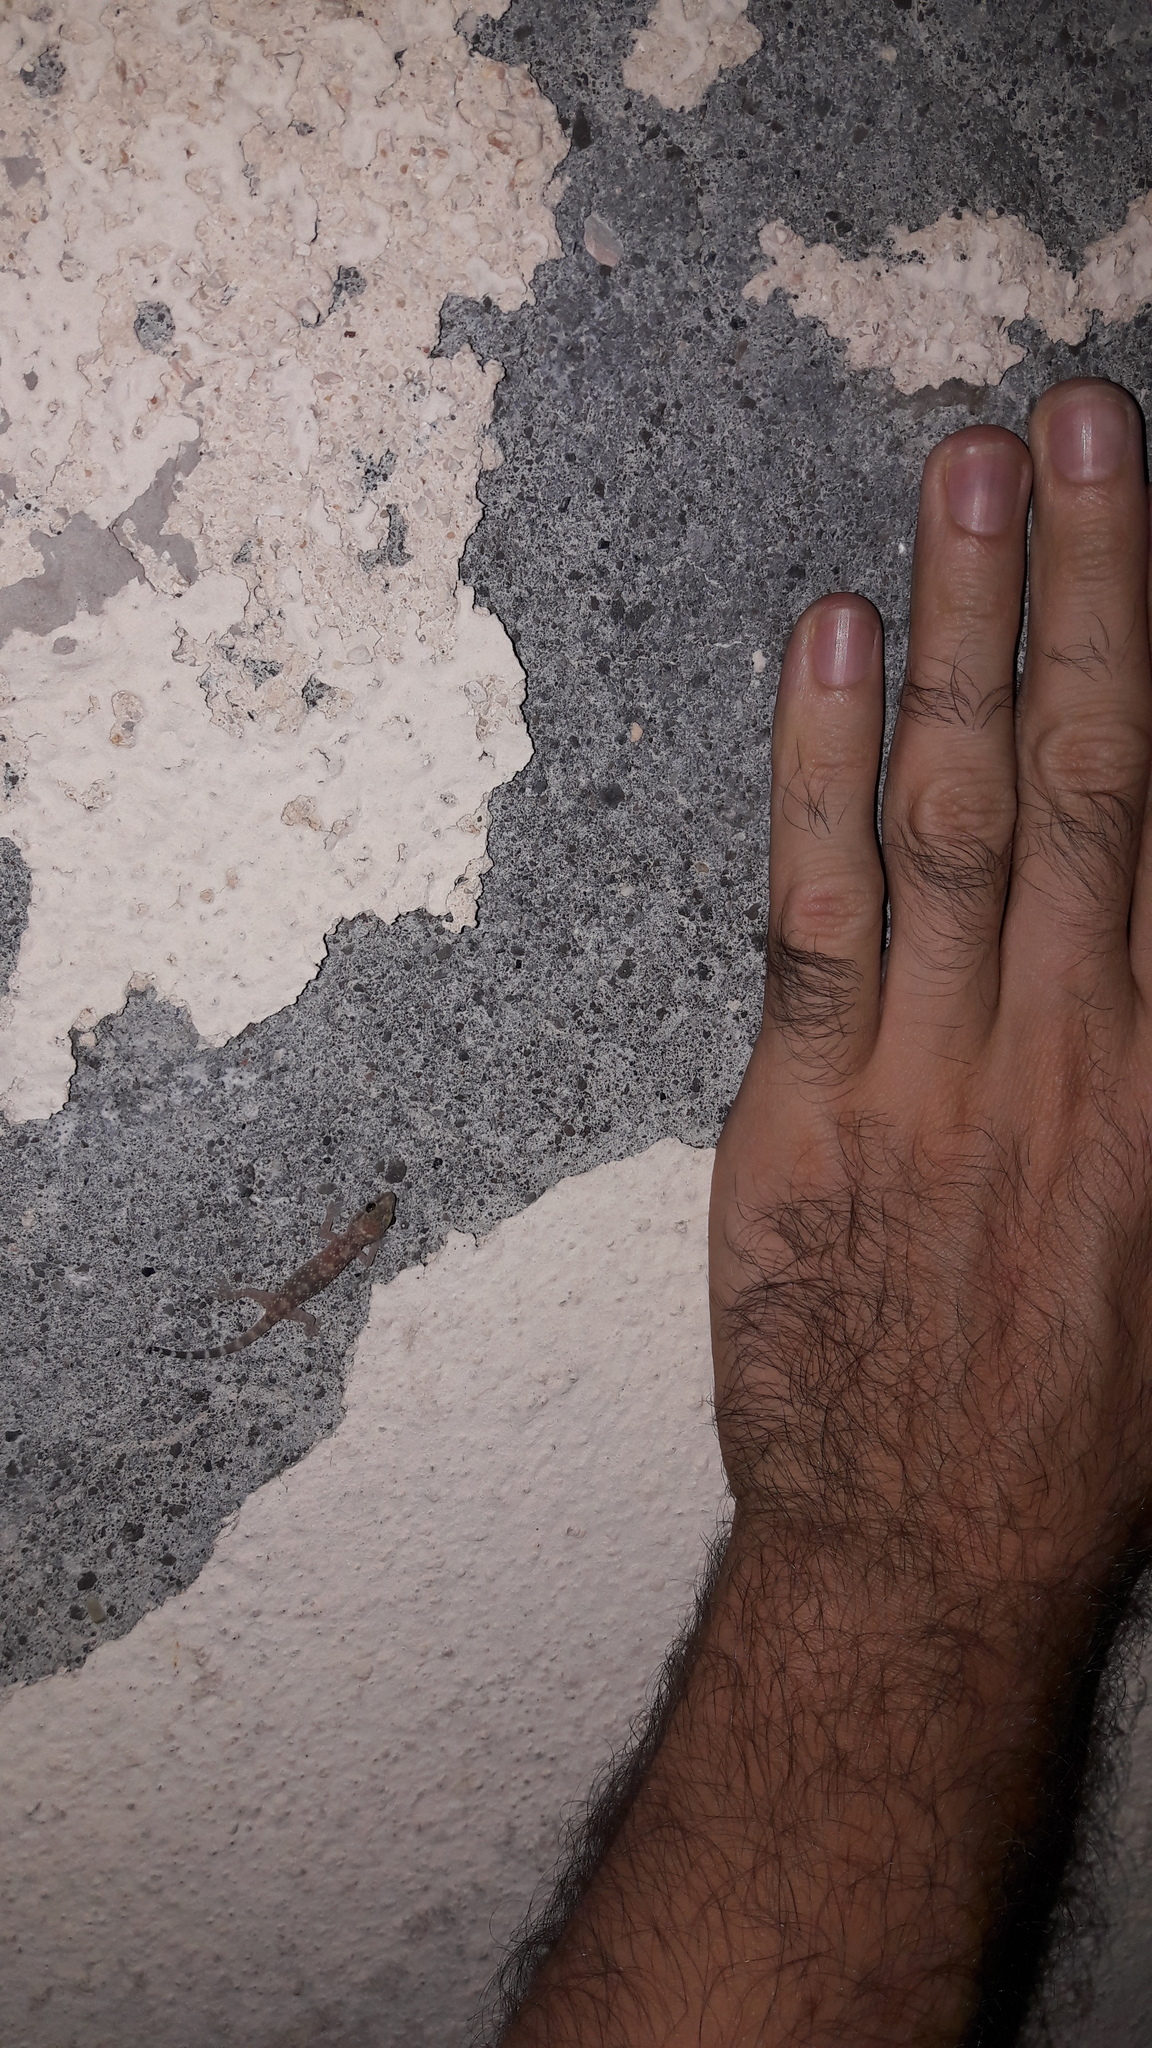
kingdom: Animalia
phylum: Chordata
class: Squamata
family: Gekkonidae
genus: Hemidactylus
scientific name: Hemidactylus turcicus
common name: Turkish gecko
